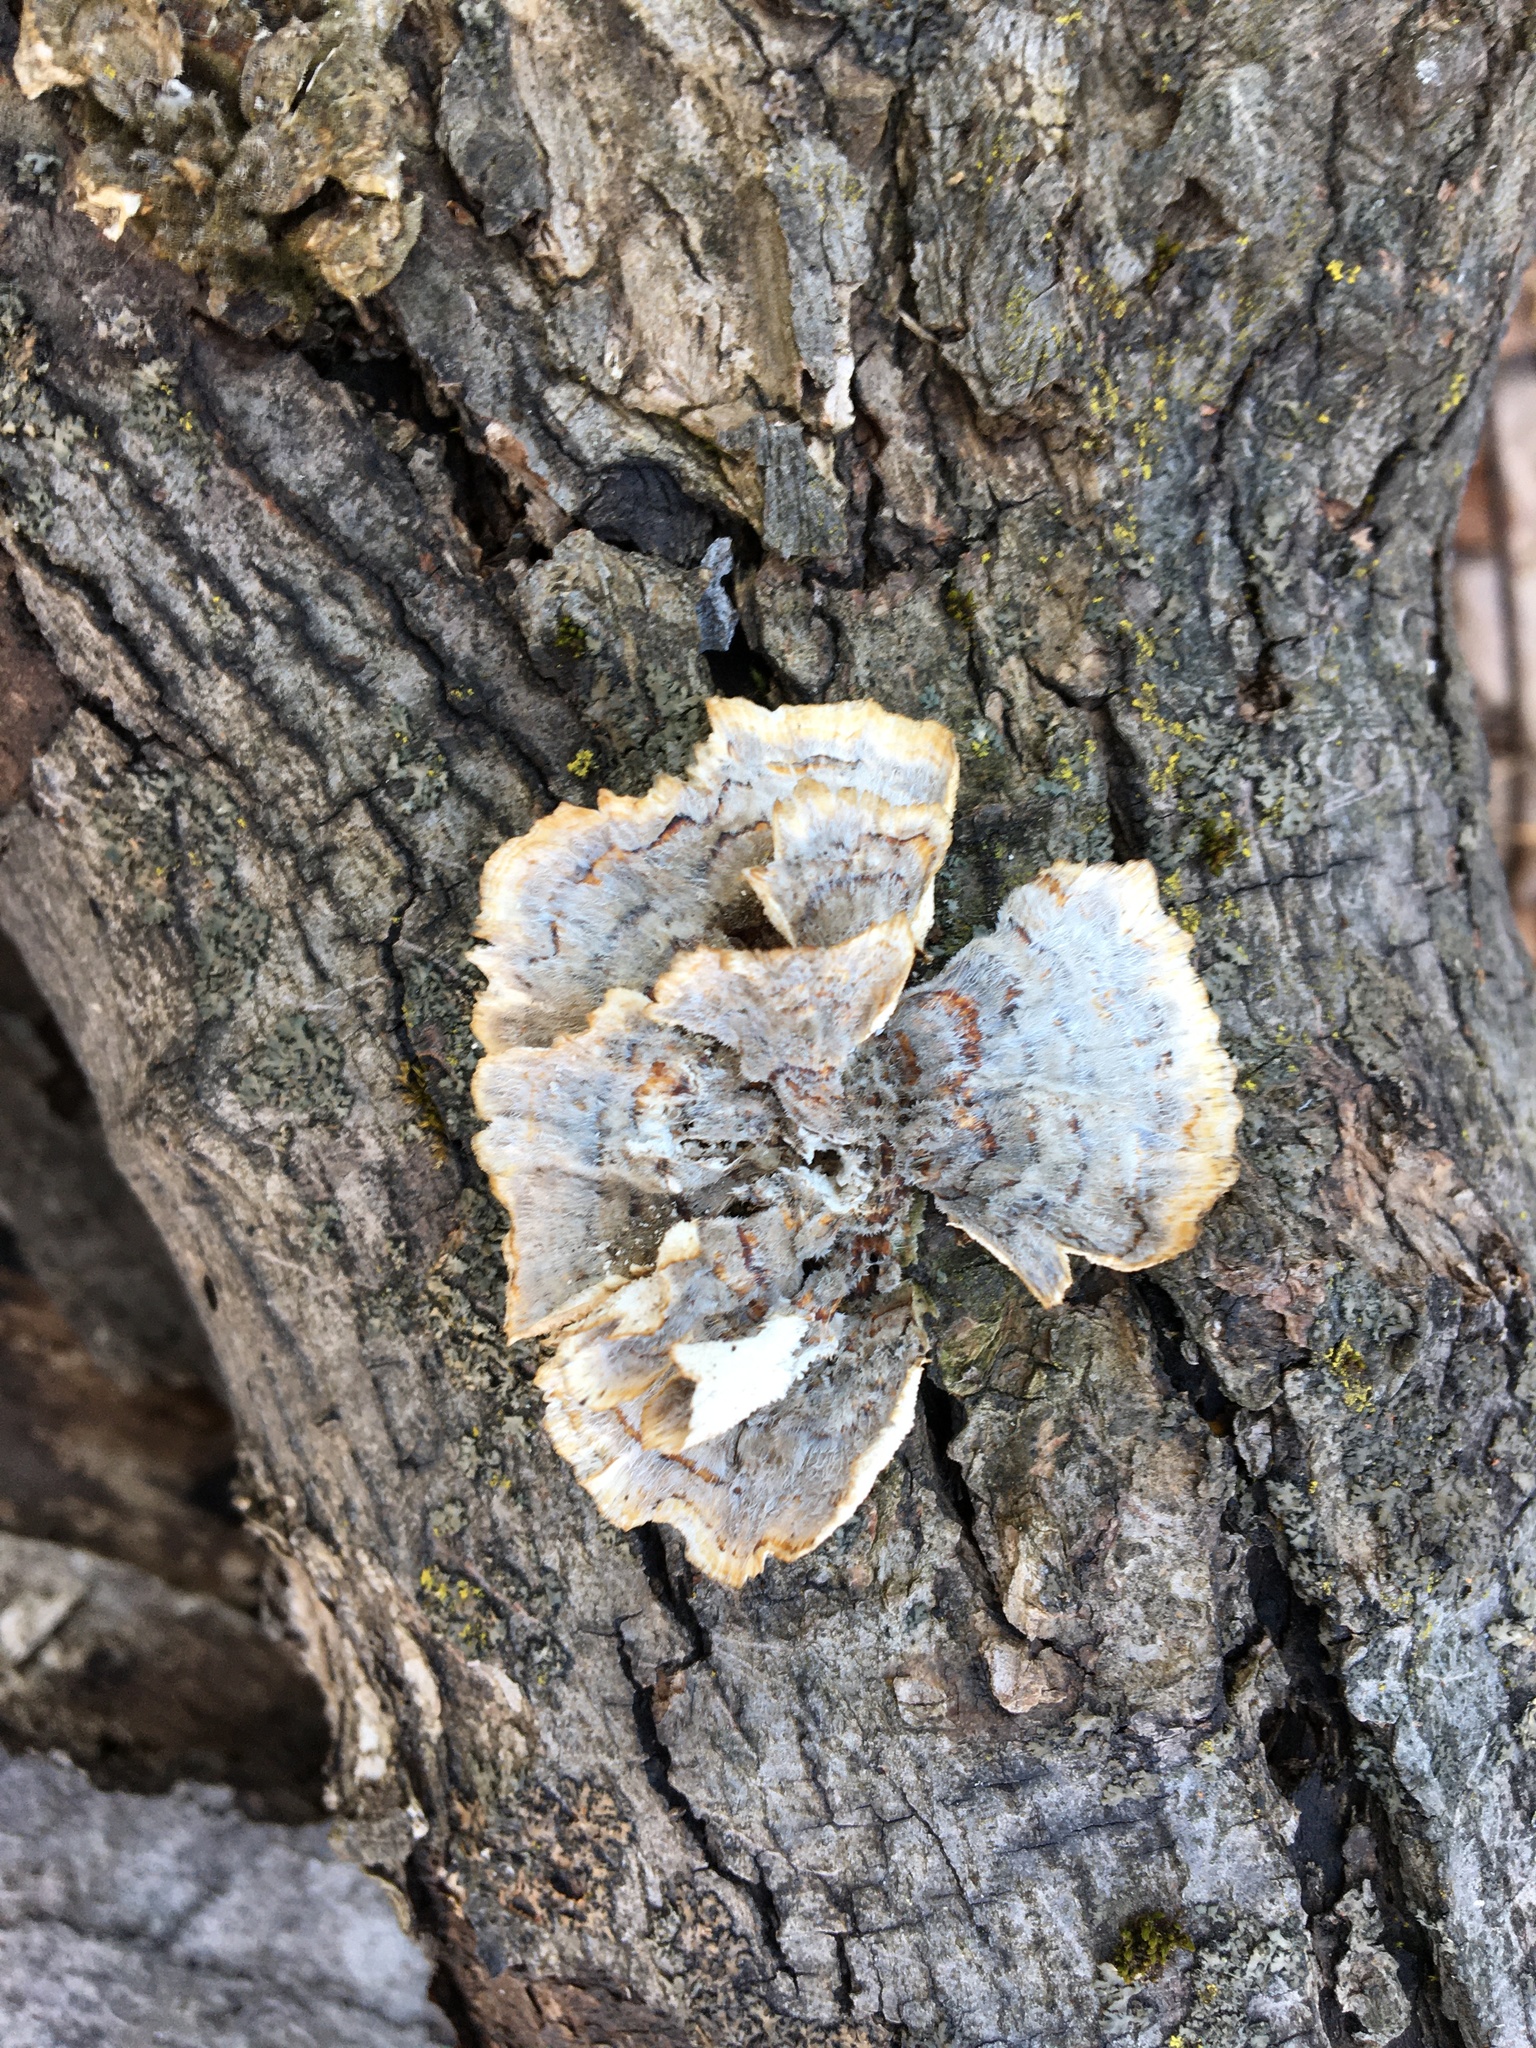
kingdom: Fungi
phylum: Basidiomycota
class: Agaricomycetes
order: Hymenochaetales
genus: Trichaptum
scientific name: Trichaptum biforme
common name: Violet-toothed polypore
